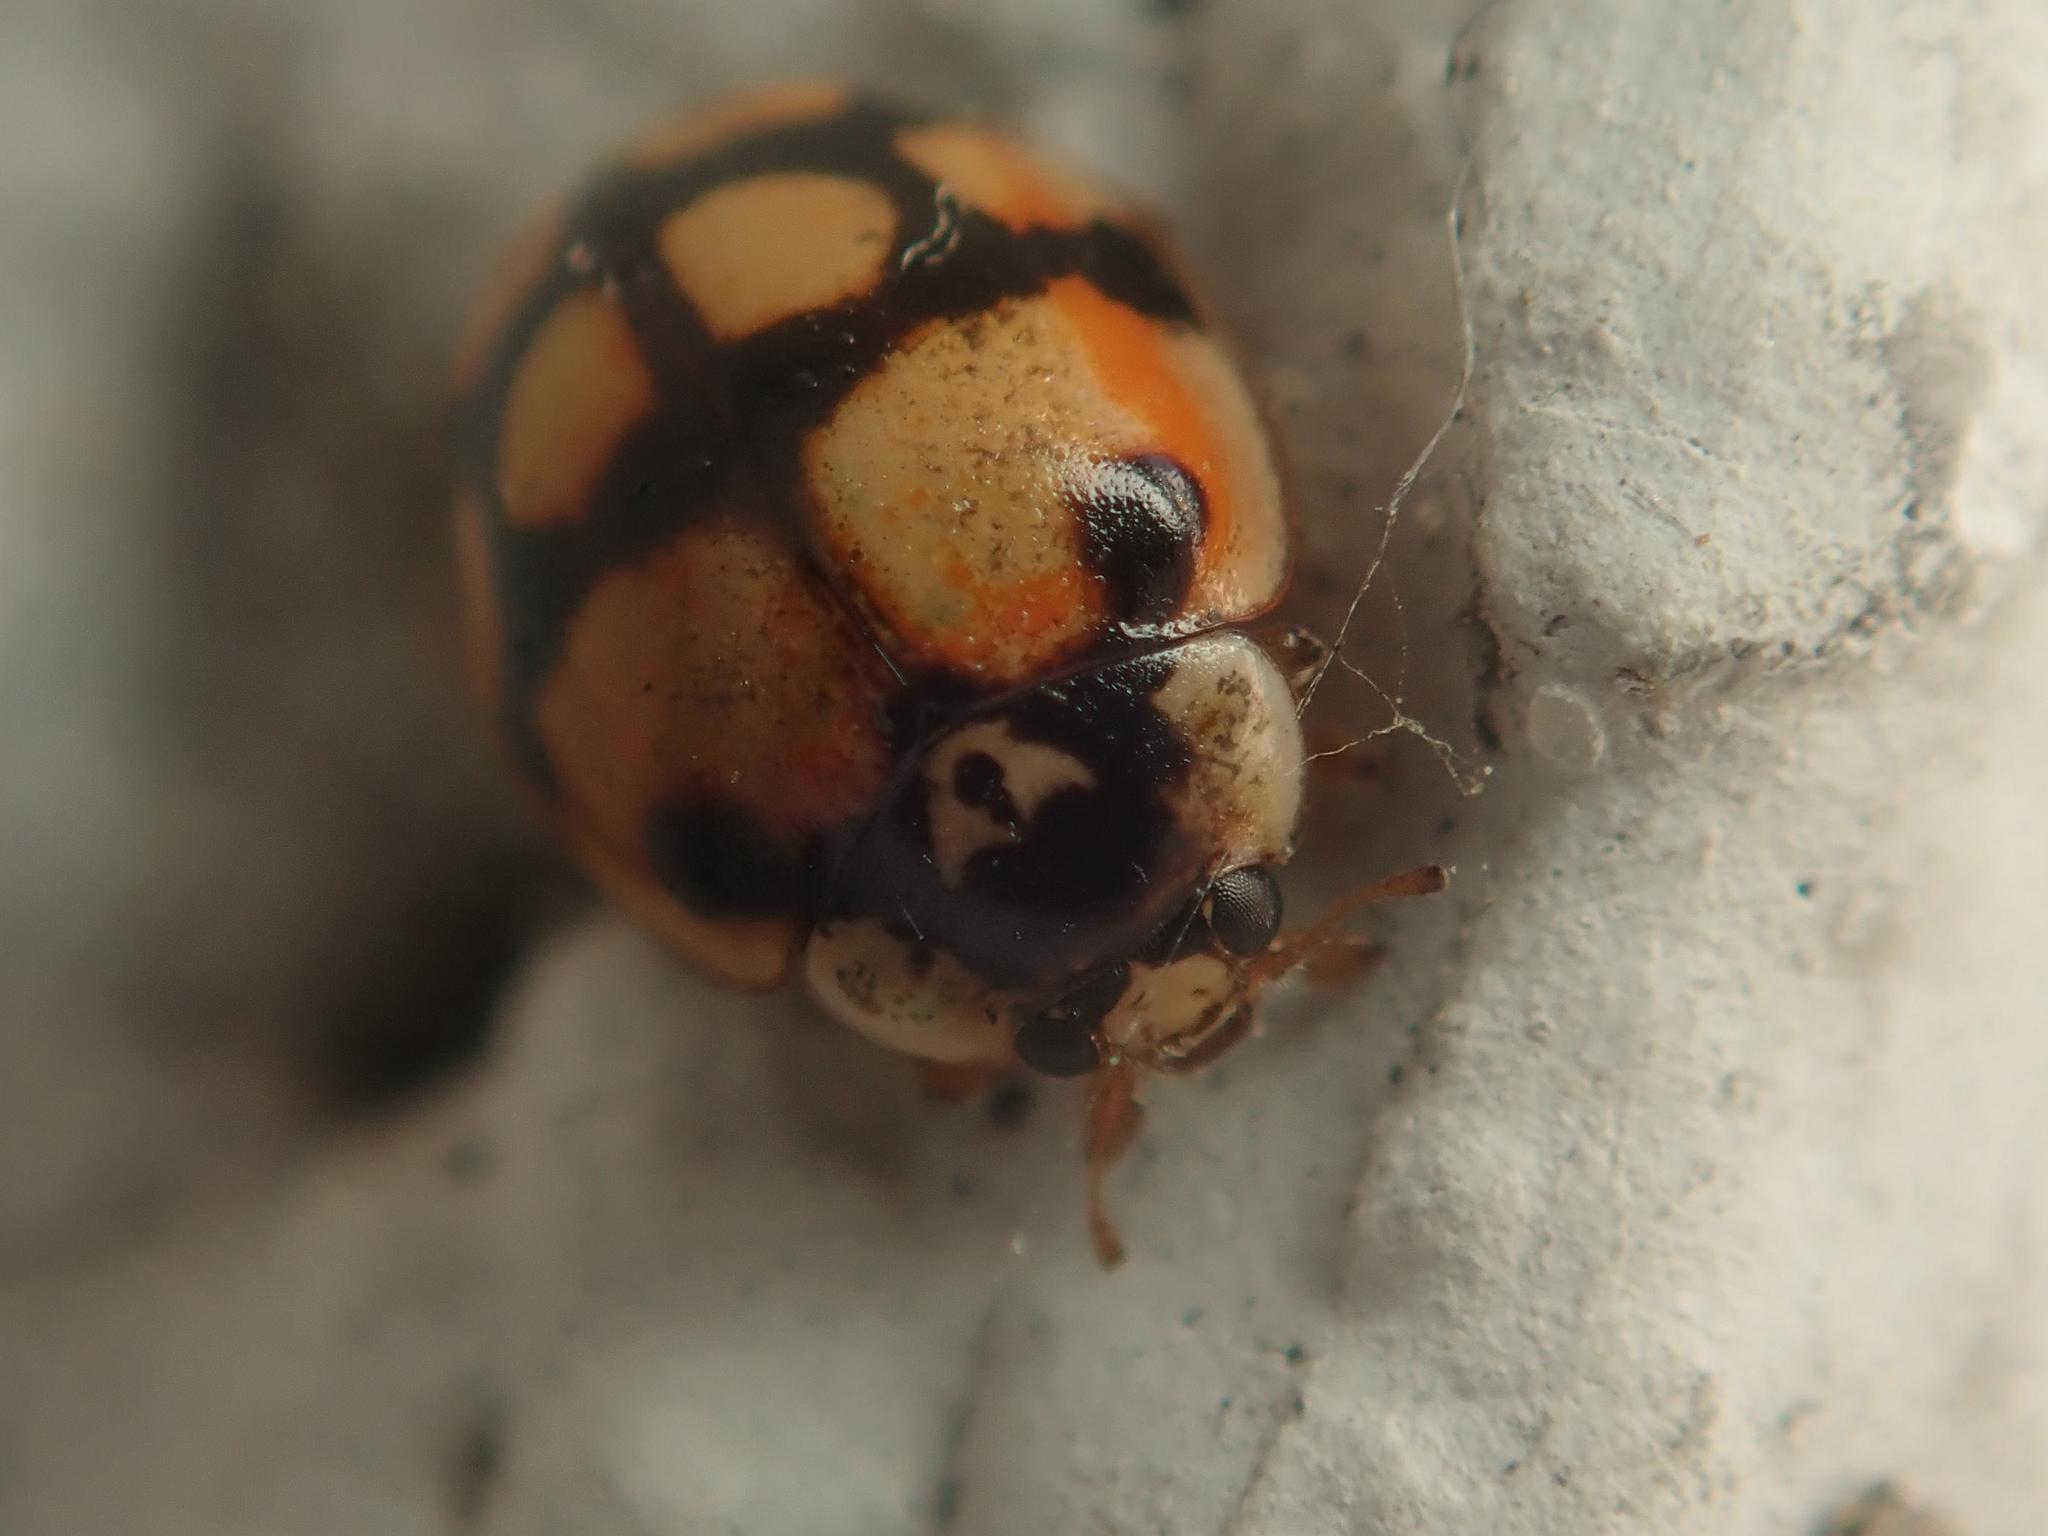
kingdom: Animalia
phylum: Arthropoda
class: Insecta
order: Coleoptera
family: Coccinellidae
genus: Adalia
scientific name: Adalia decempunctata
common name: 10-spot ladybird
